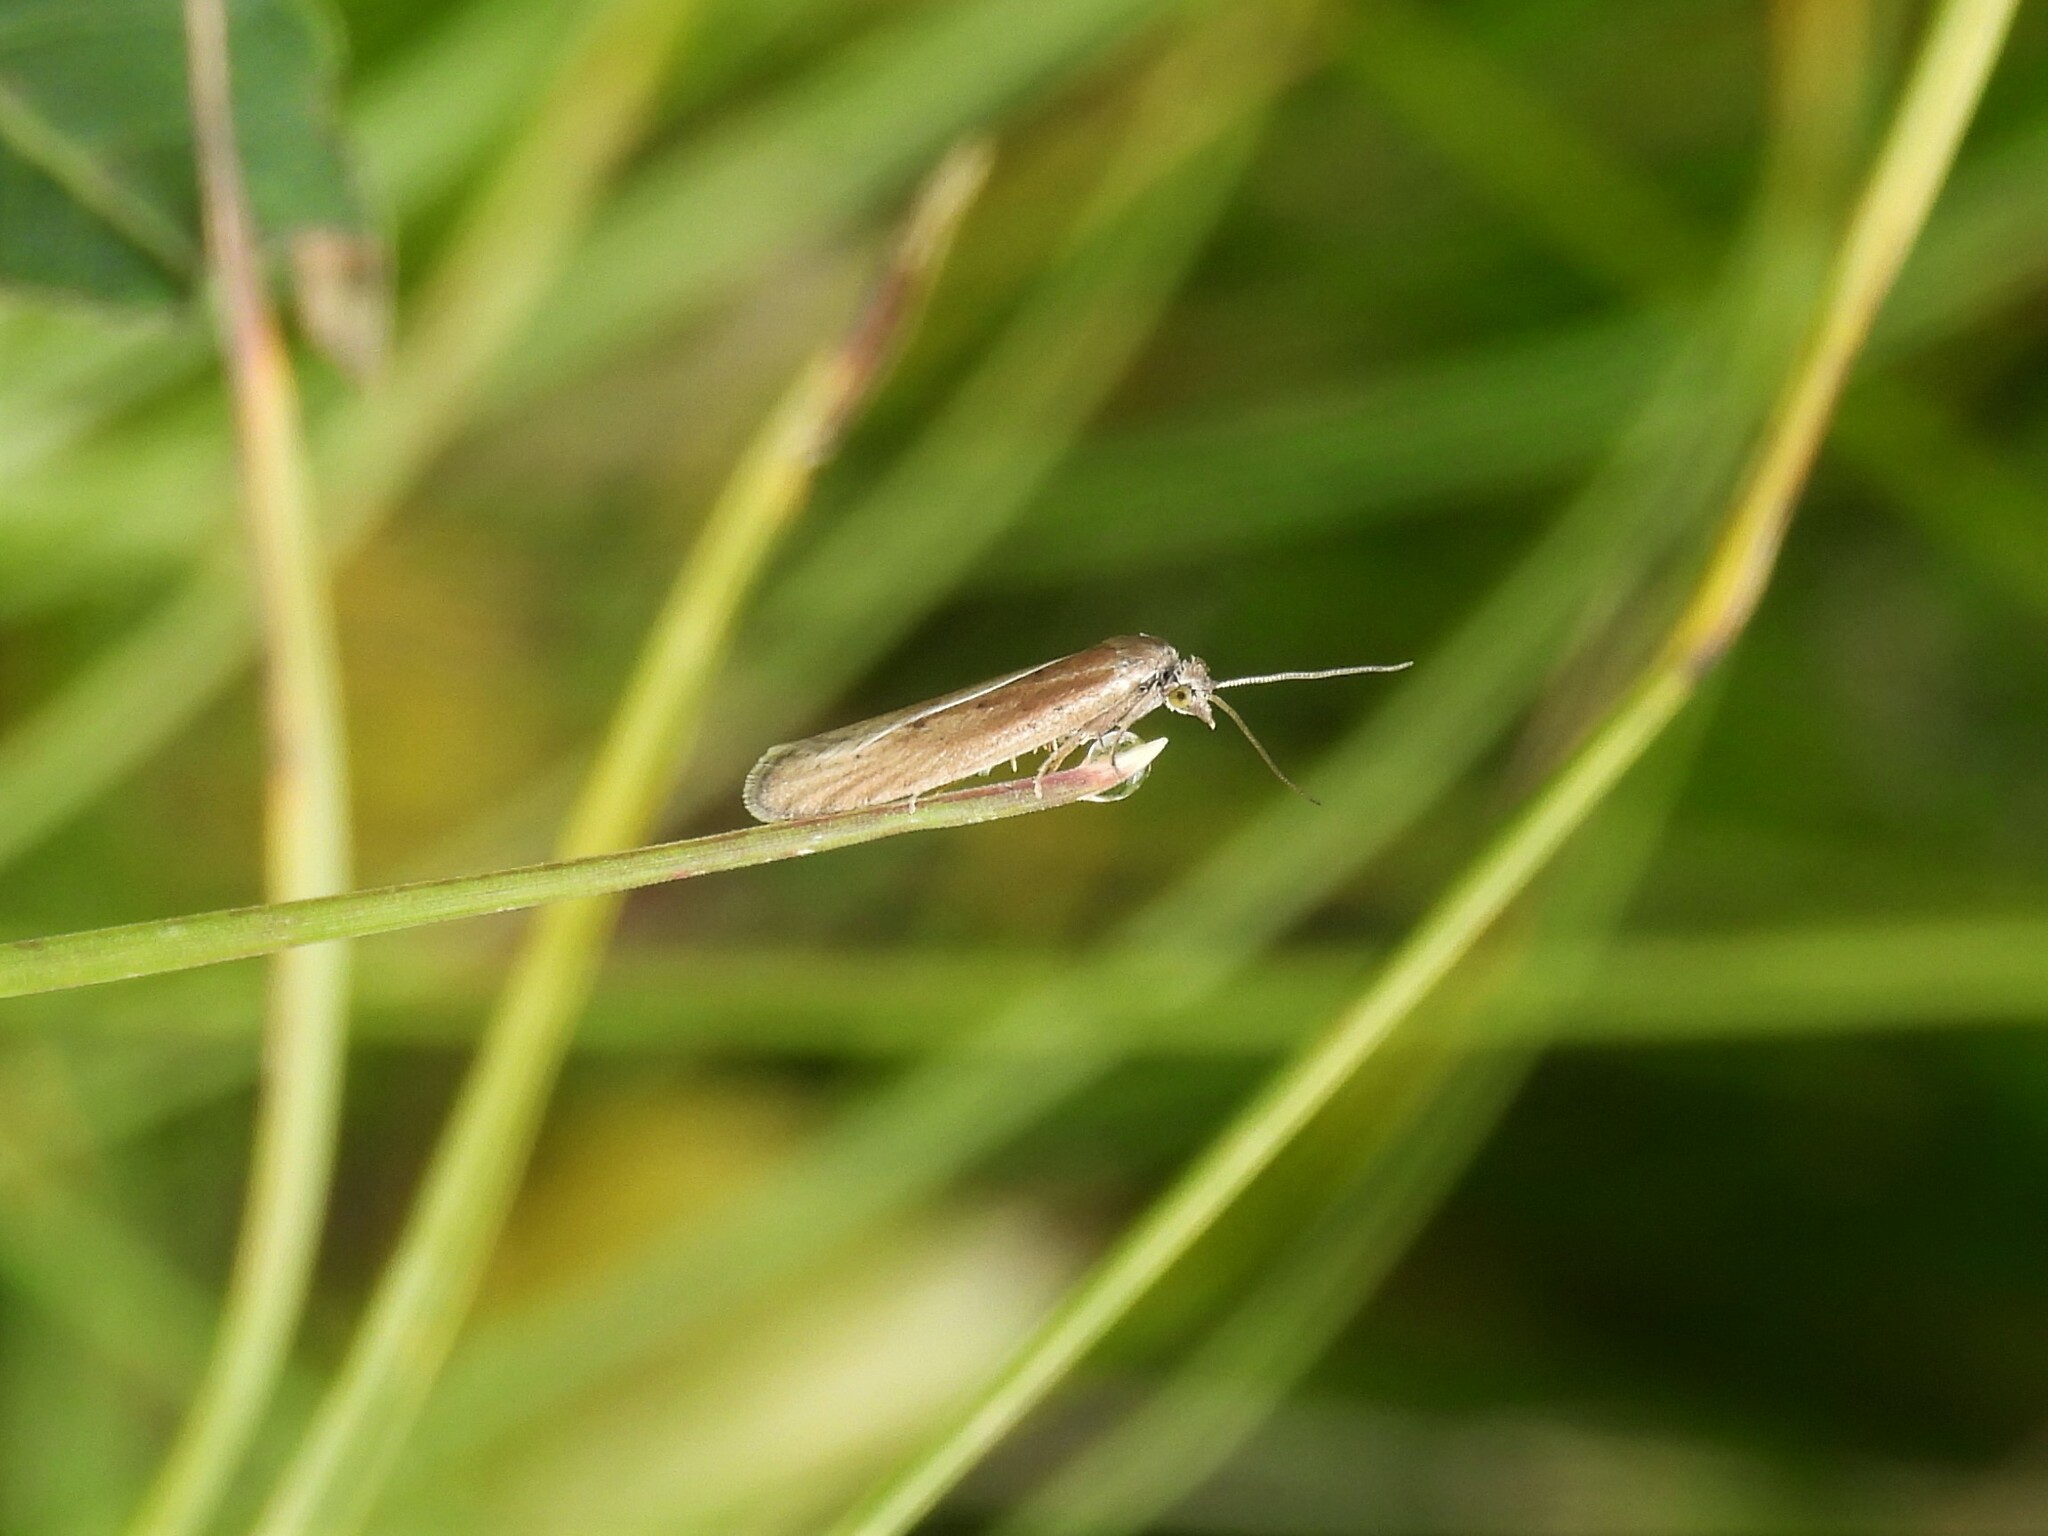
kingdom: Animalia
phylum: Arthropoda
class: Insecta
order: Lepidoptera
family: Tortricidae
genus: Eana
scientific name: Eana osseana
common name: Dotted shade
